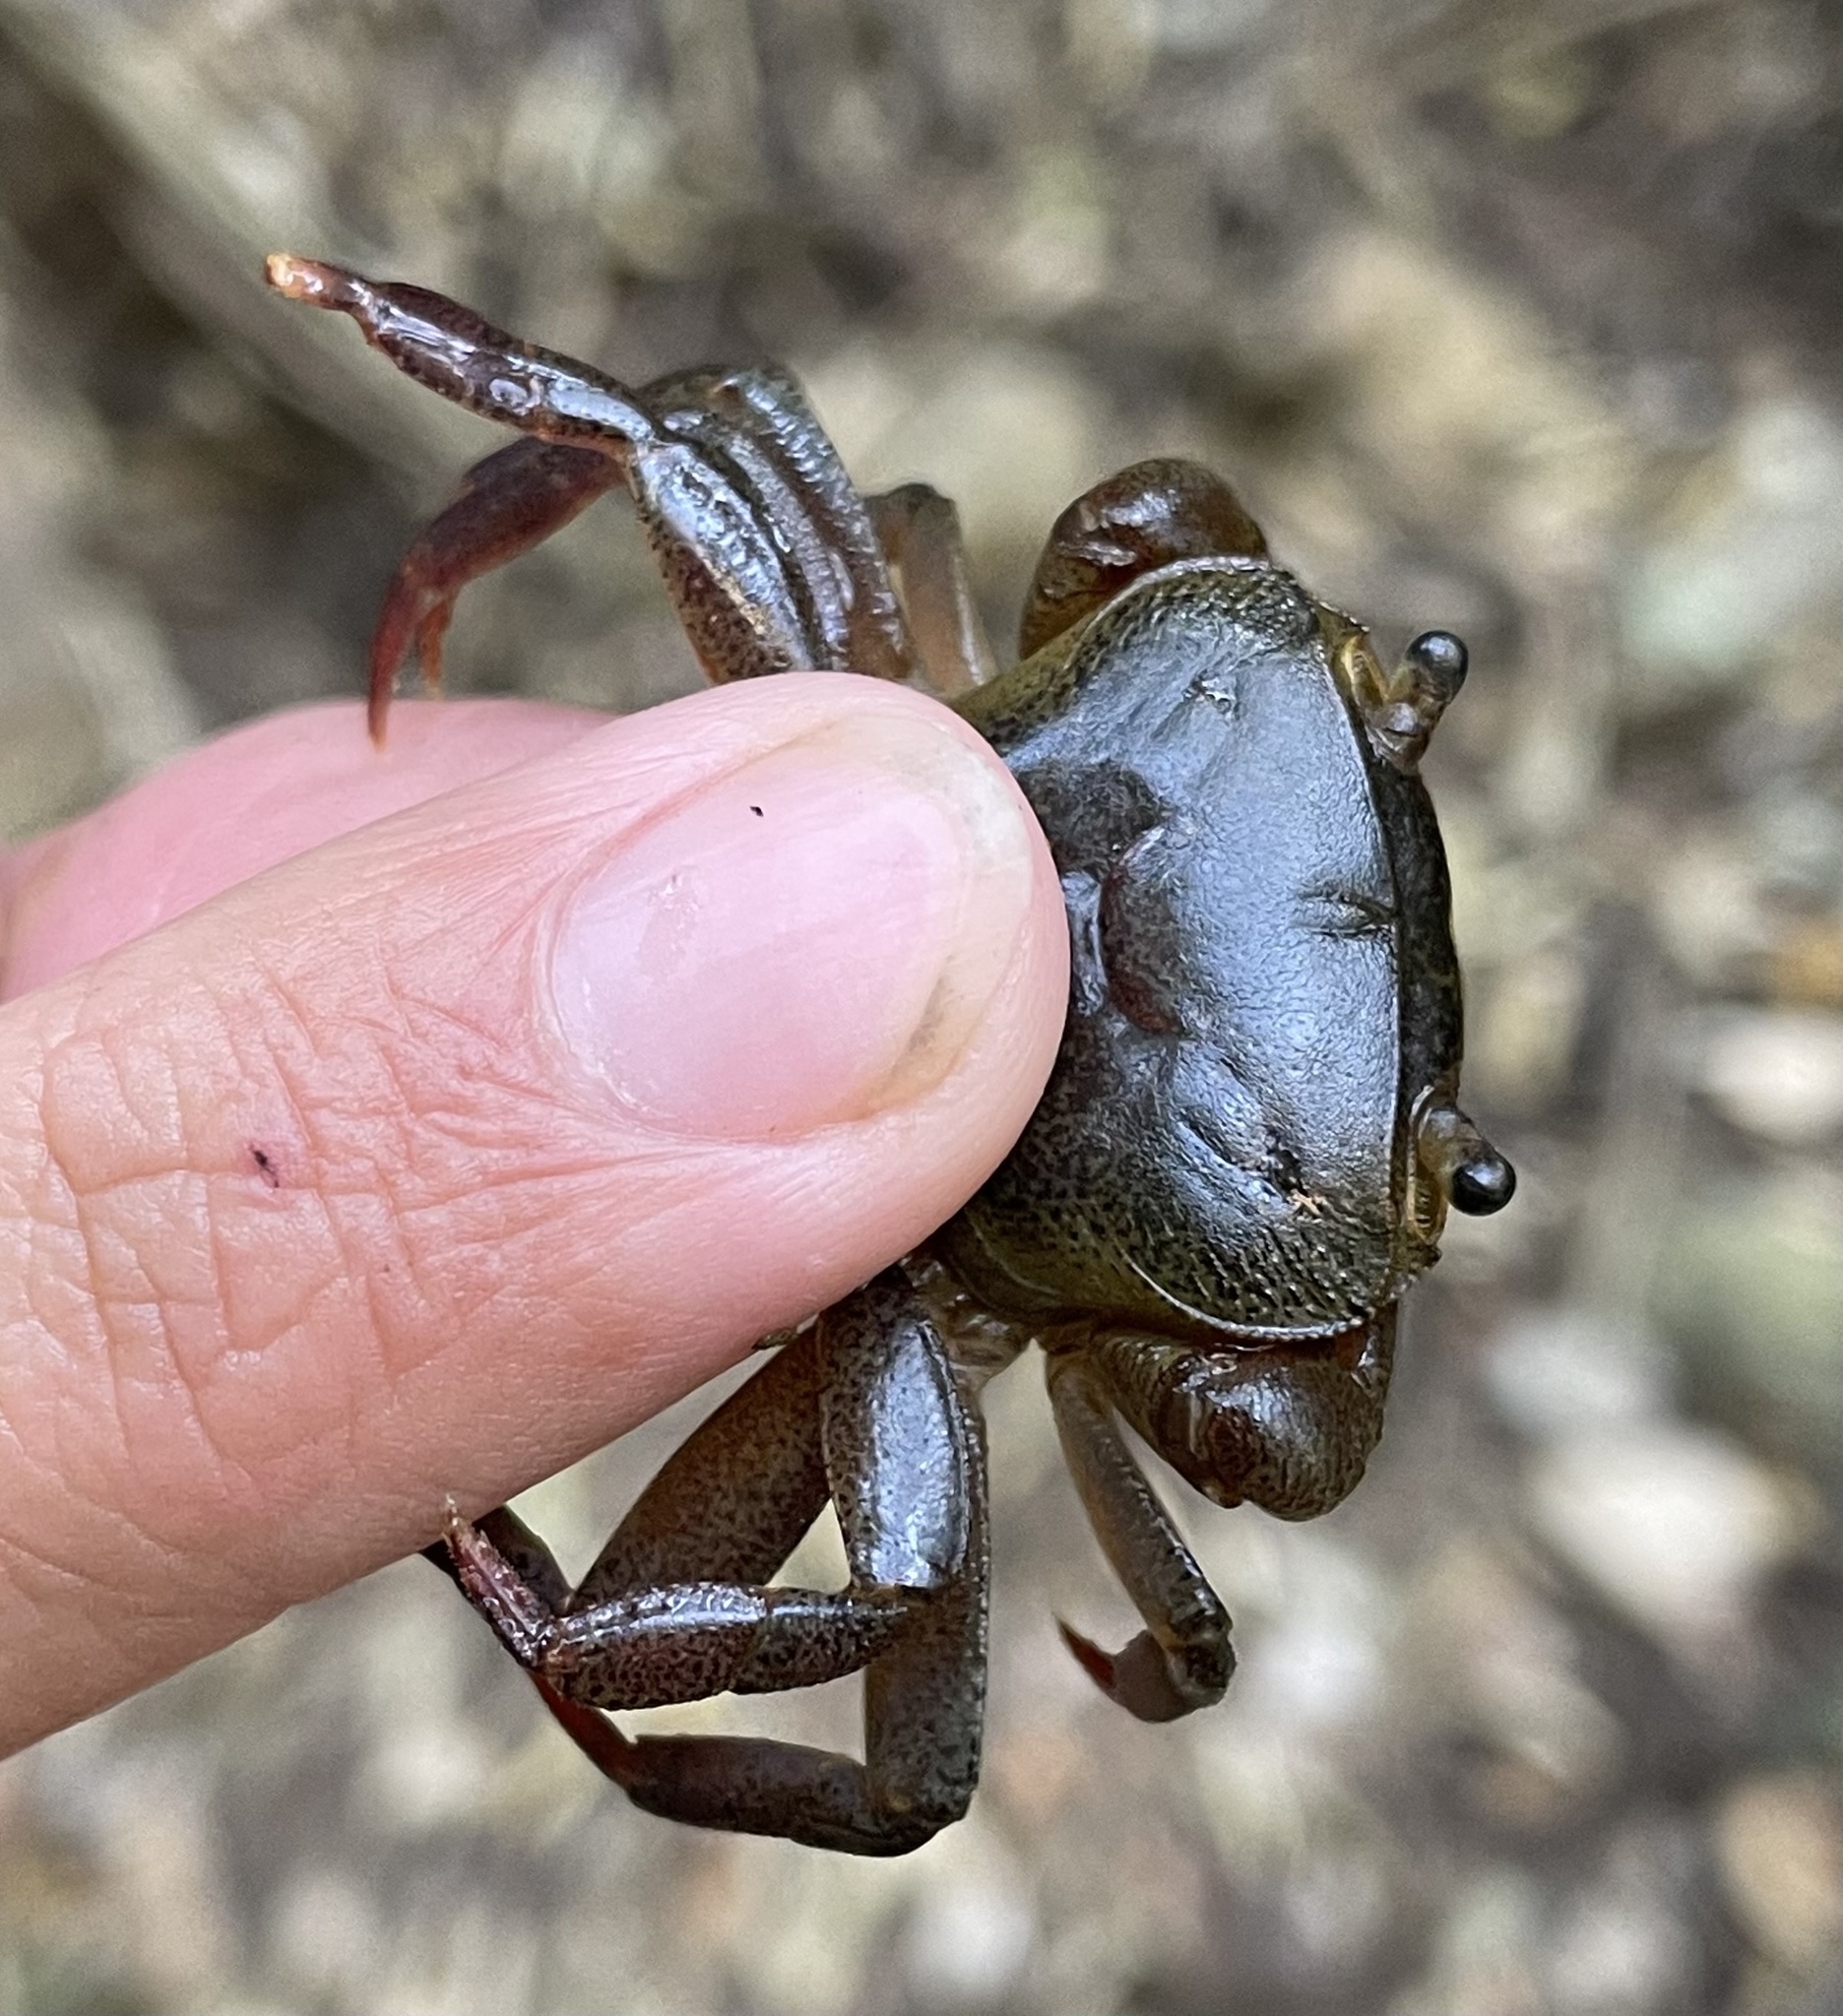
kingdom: Animalia
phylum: Arthropoda
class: Malacostraca
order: Decapoda
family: Potamonautidae
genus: Potamonautes
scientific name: Potamonautes barbarai
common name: Barbara's crab
